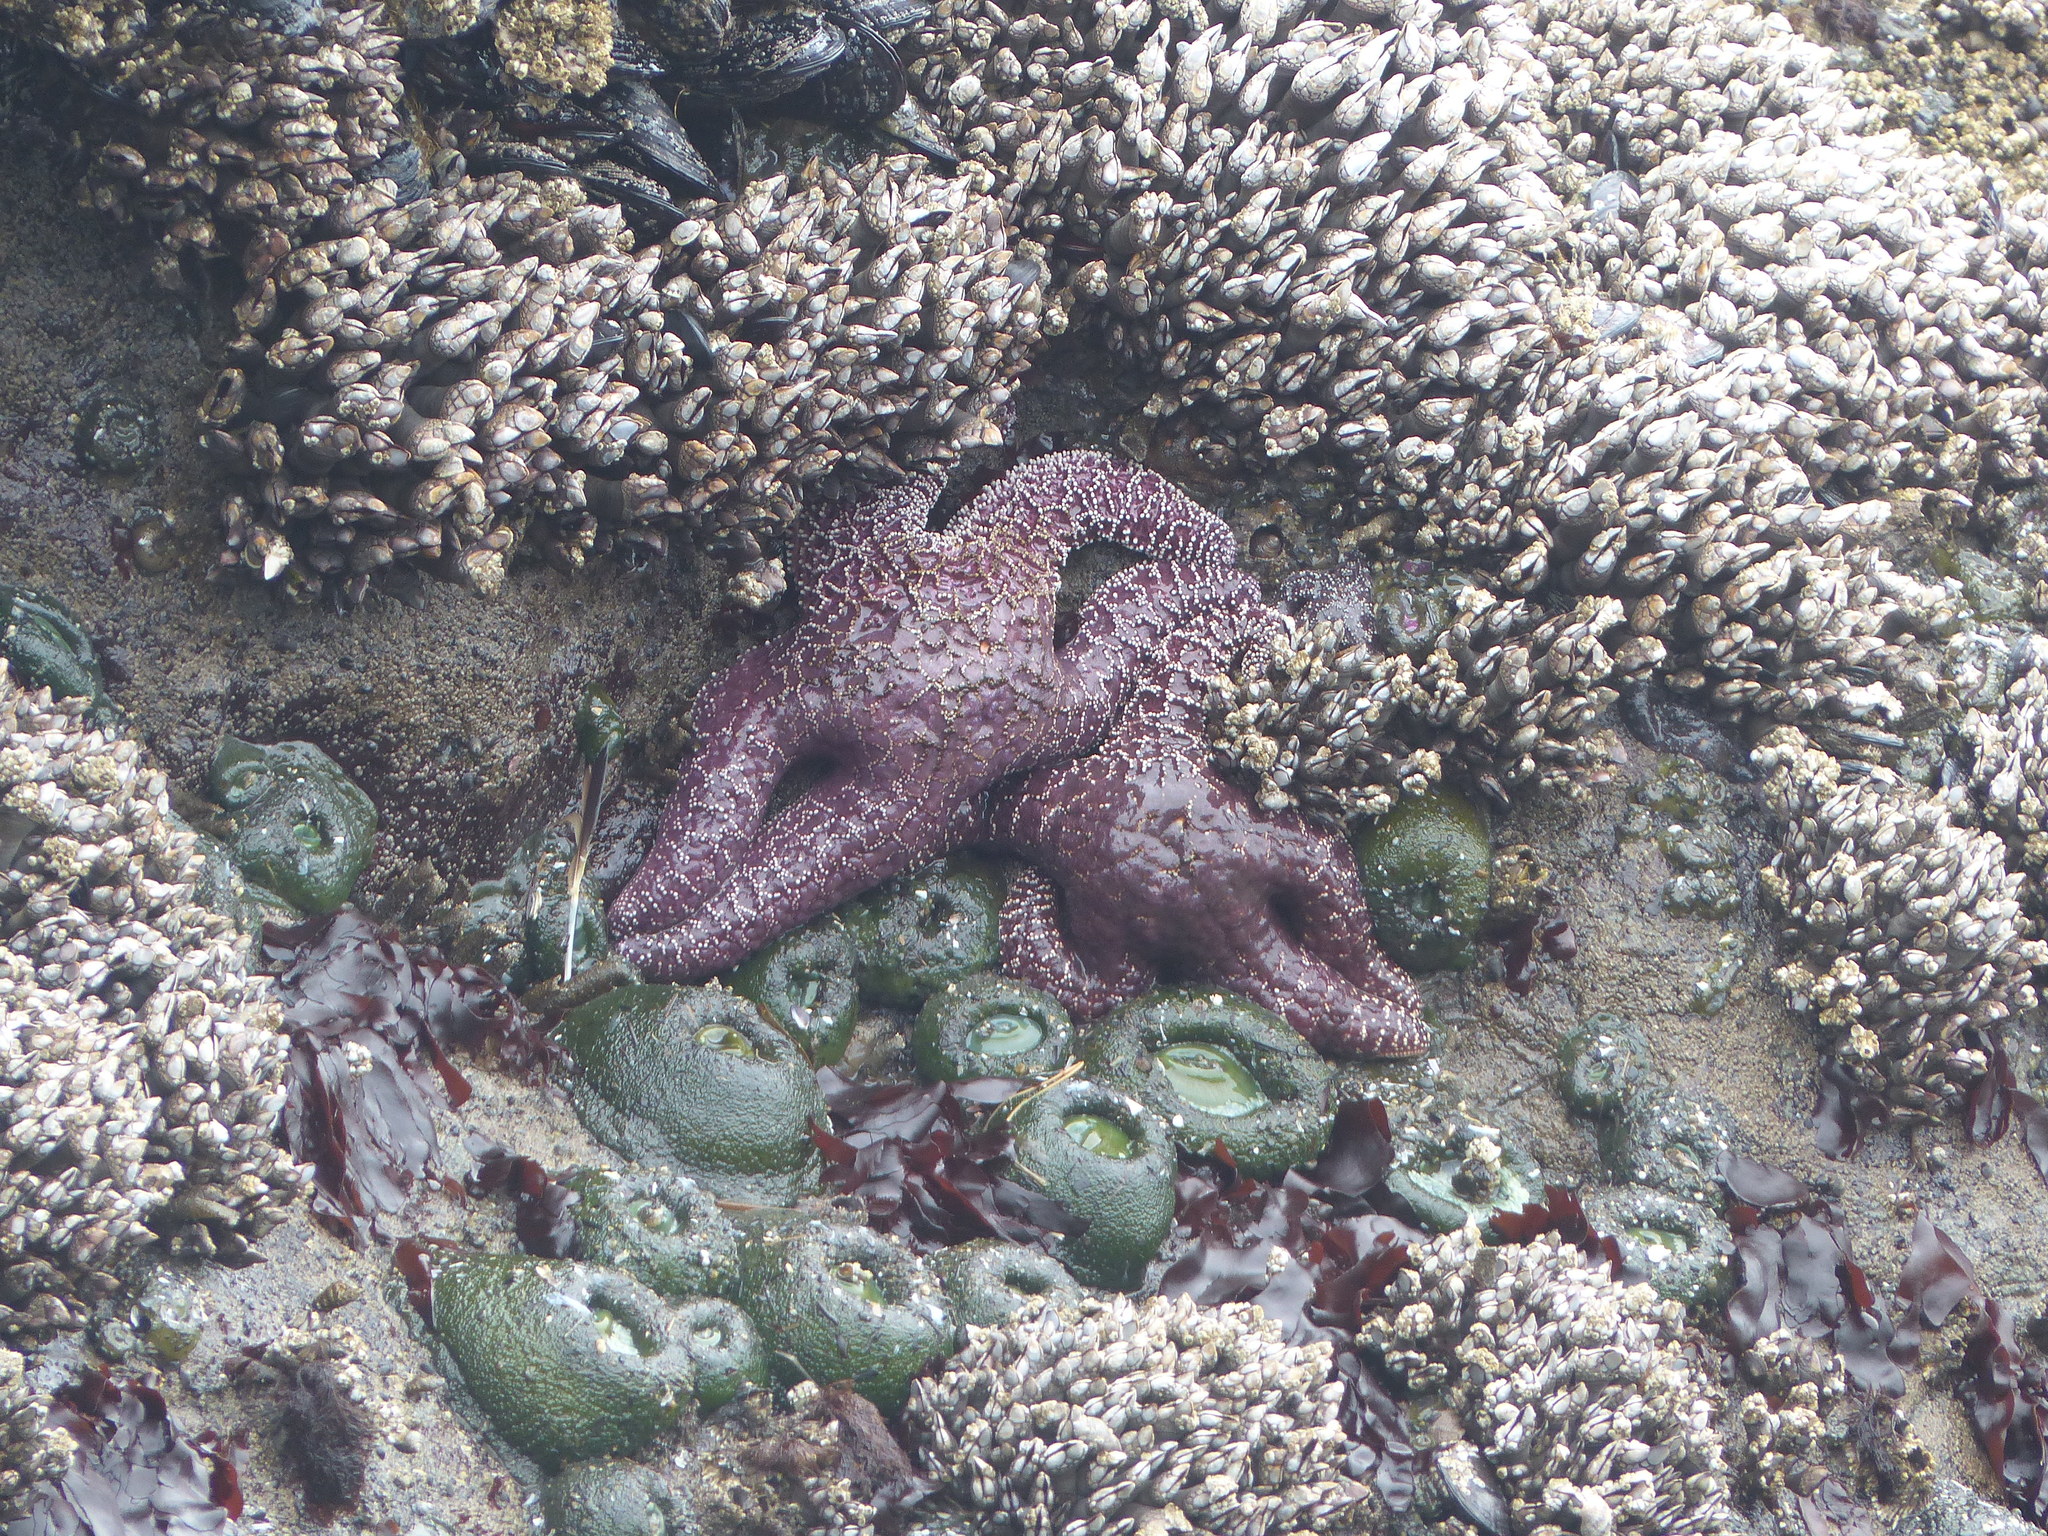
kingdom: Animalia
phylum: Echinodermata
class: Asteroidea
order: Forcipulatida
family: Asteriidae
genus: Pisaster
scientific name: Pisaster ochraceus
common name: Ochre stars
